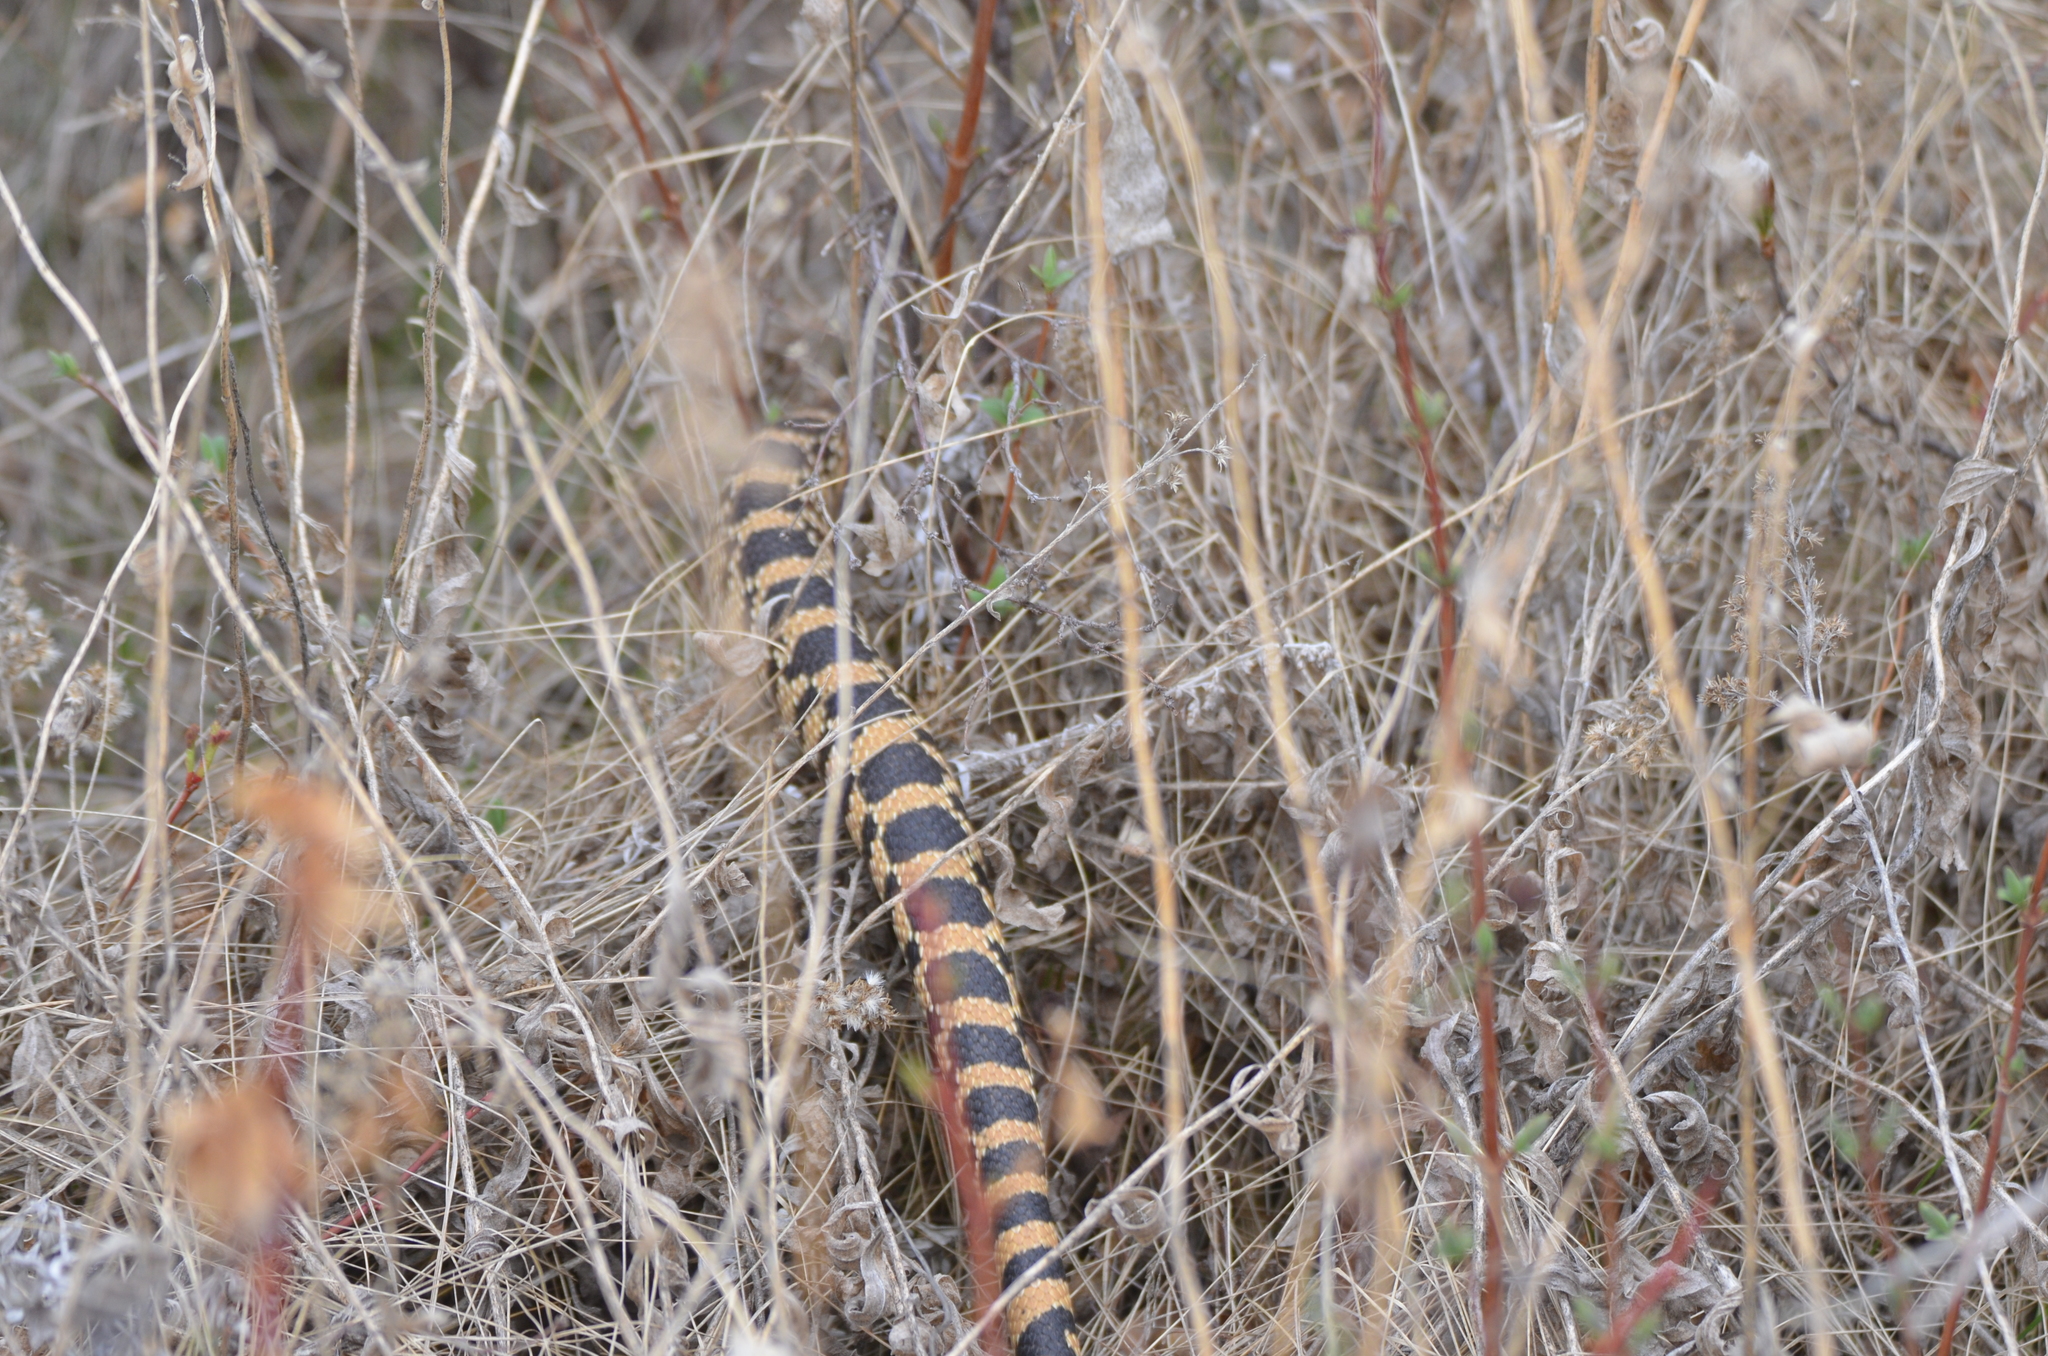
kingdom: Animalia
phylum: Chordata
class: Squamata
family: Colubridae
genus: Pituophis
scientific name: Pituophis catenifer
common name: Gopher snake
